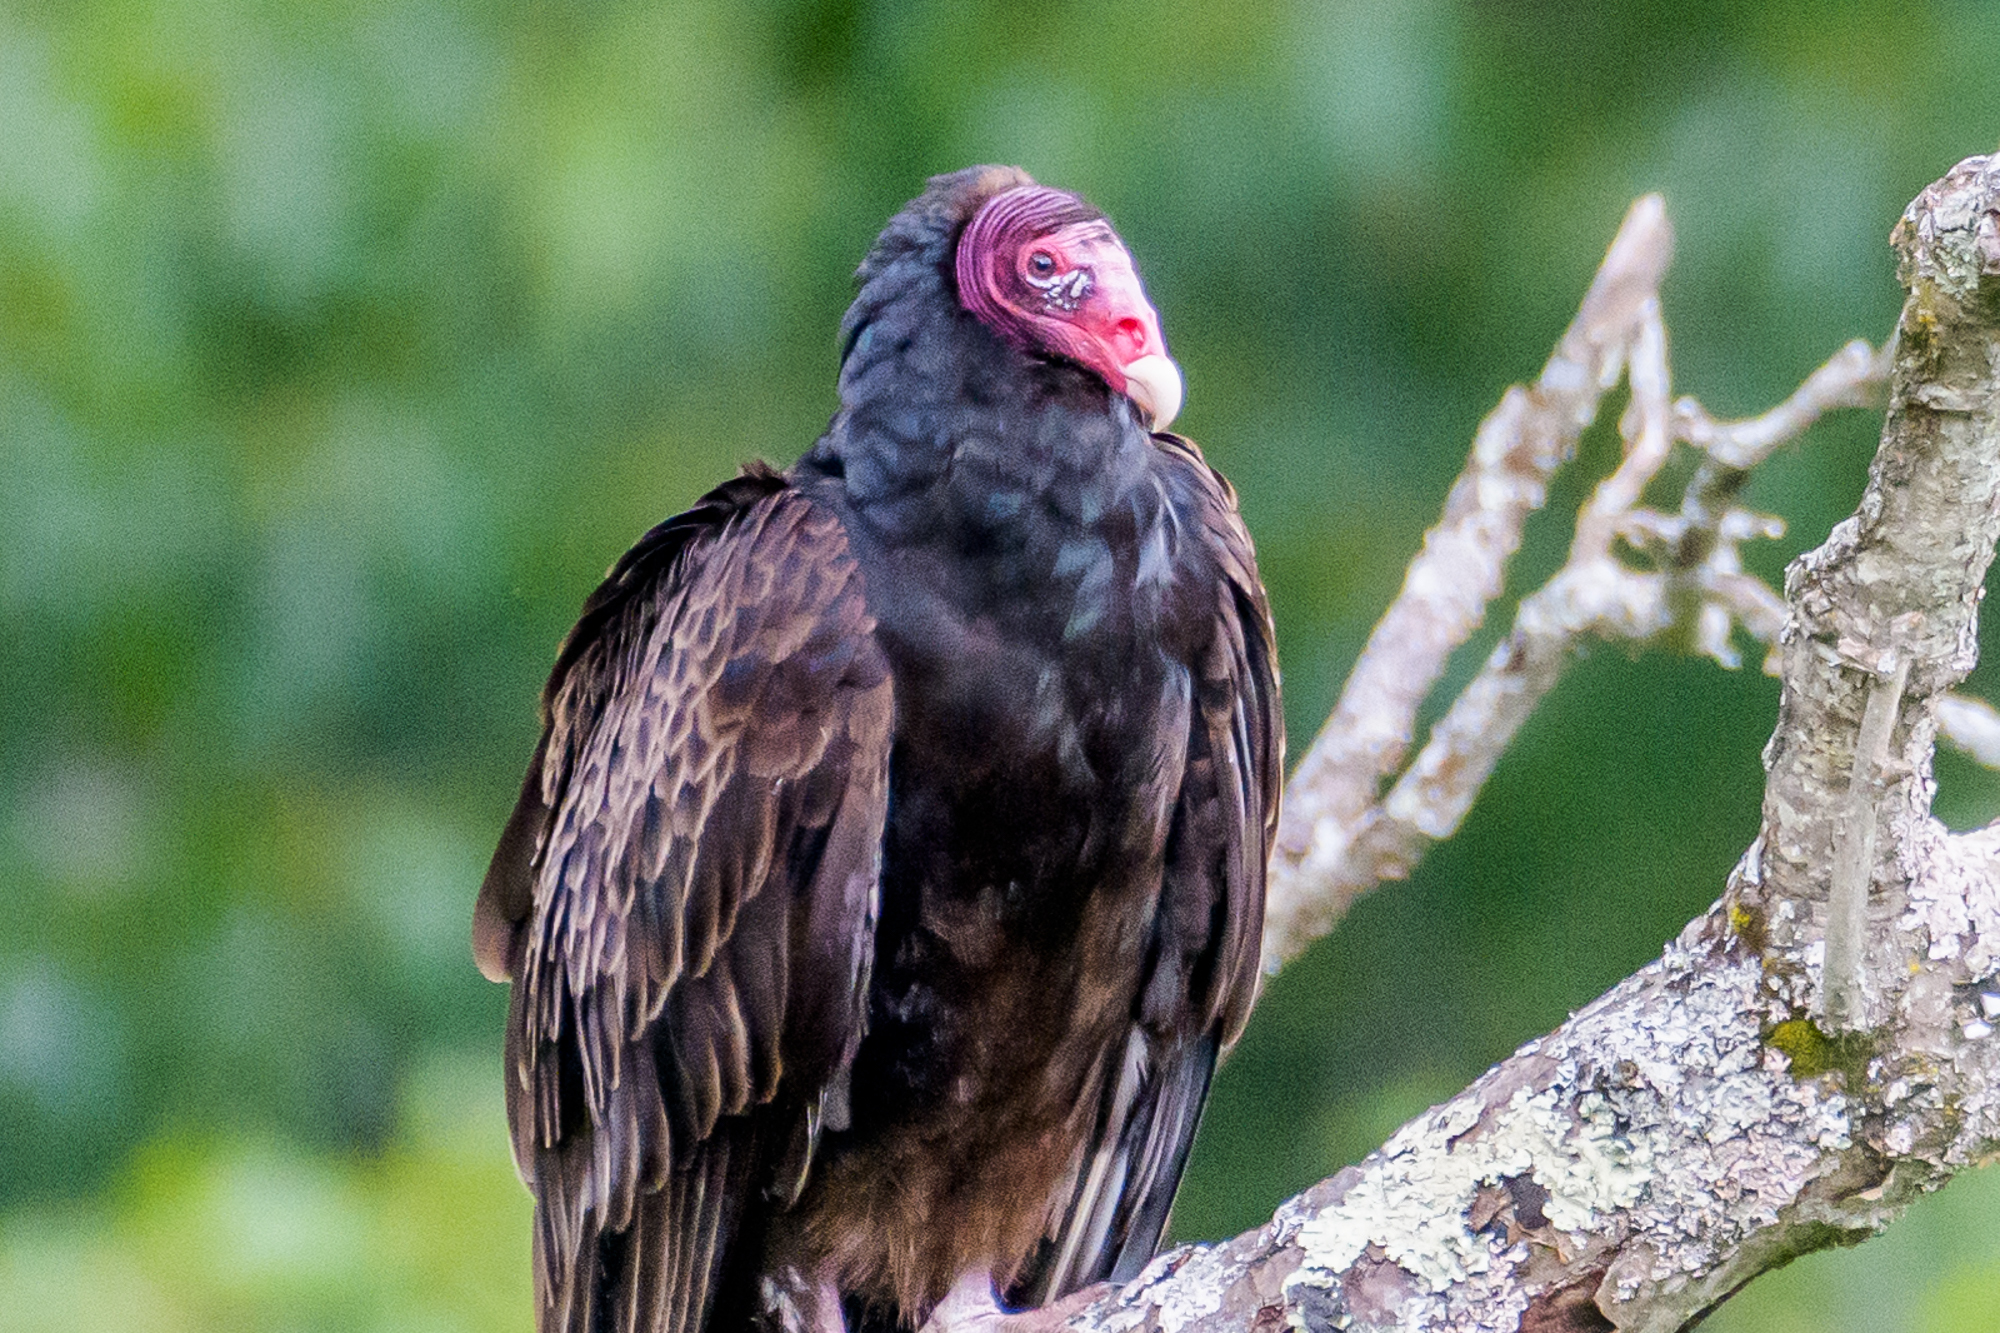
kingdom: Animalia
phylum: Chordata
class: Aves
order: Accipitriformes
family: Cathartidae
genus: Cathartes
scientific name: Cathartes aura
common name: Turkey vulture
